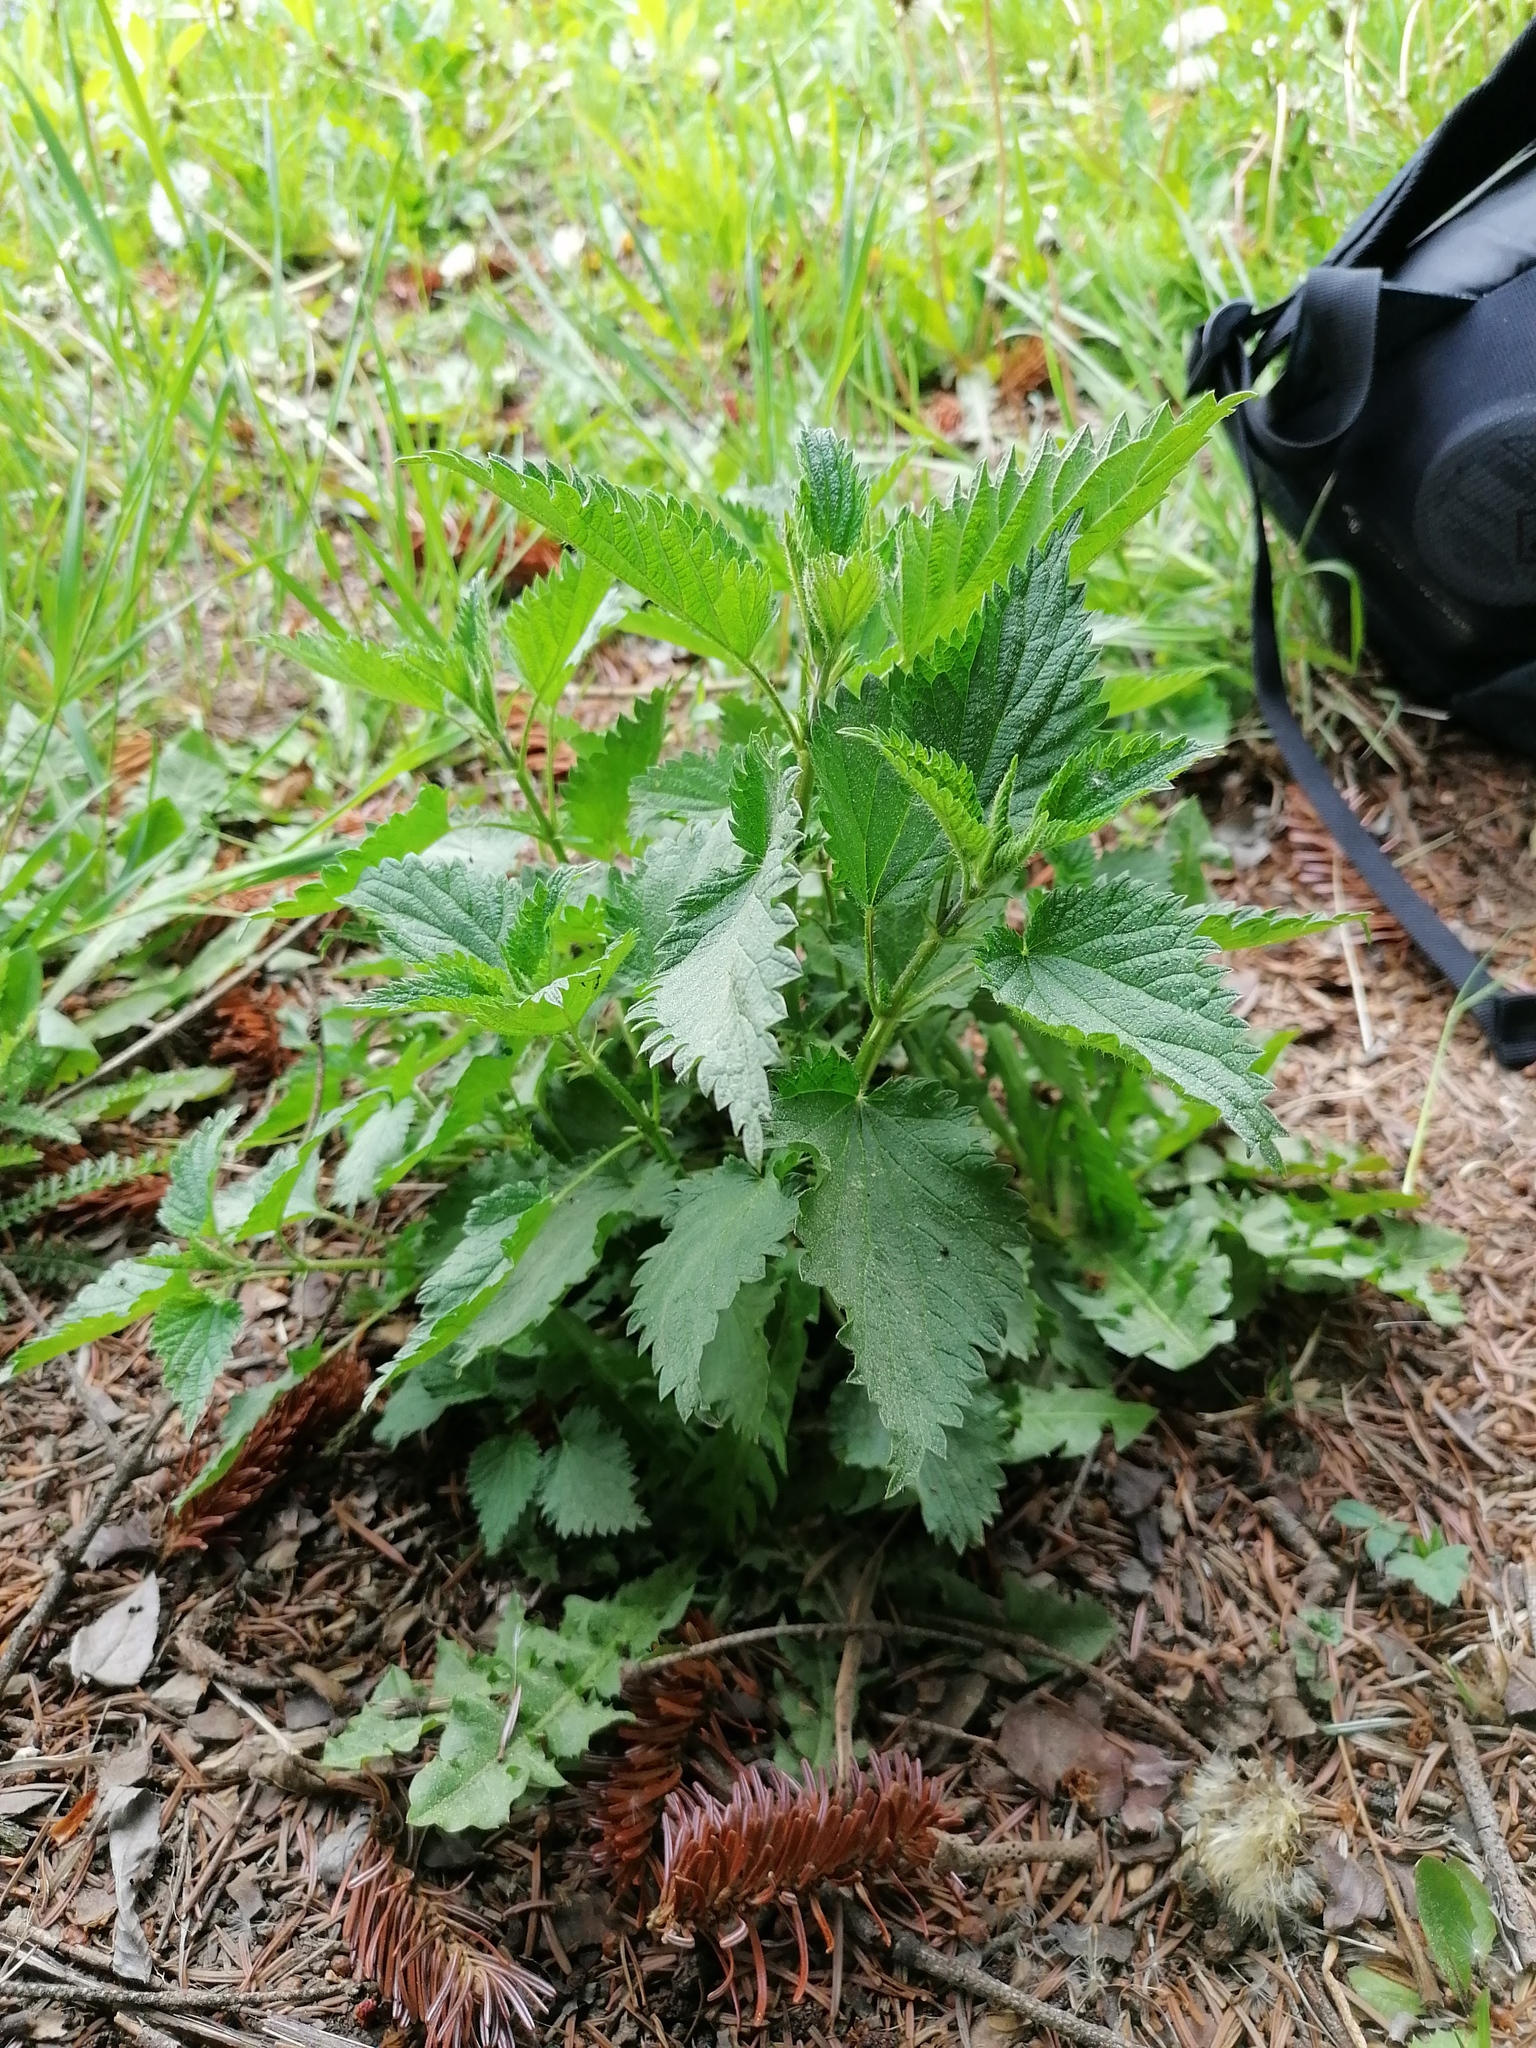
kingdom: Plantae
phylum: Tracheophyta
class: Magnoliopsida
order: Rosales
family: Urticaceae
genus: Urtica
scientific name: Urtica dioica
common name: Common nettle
